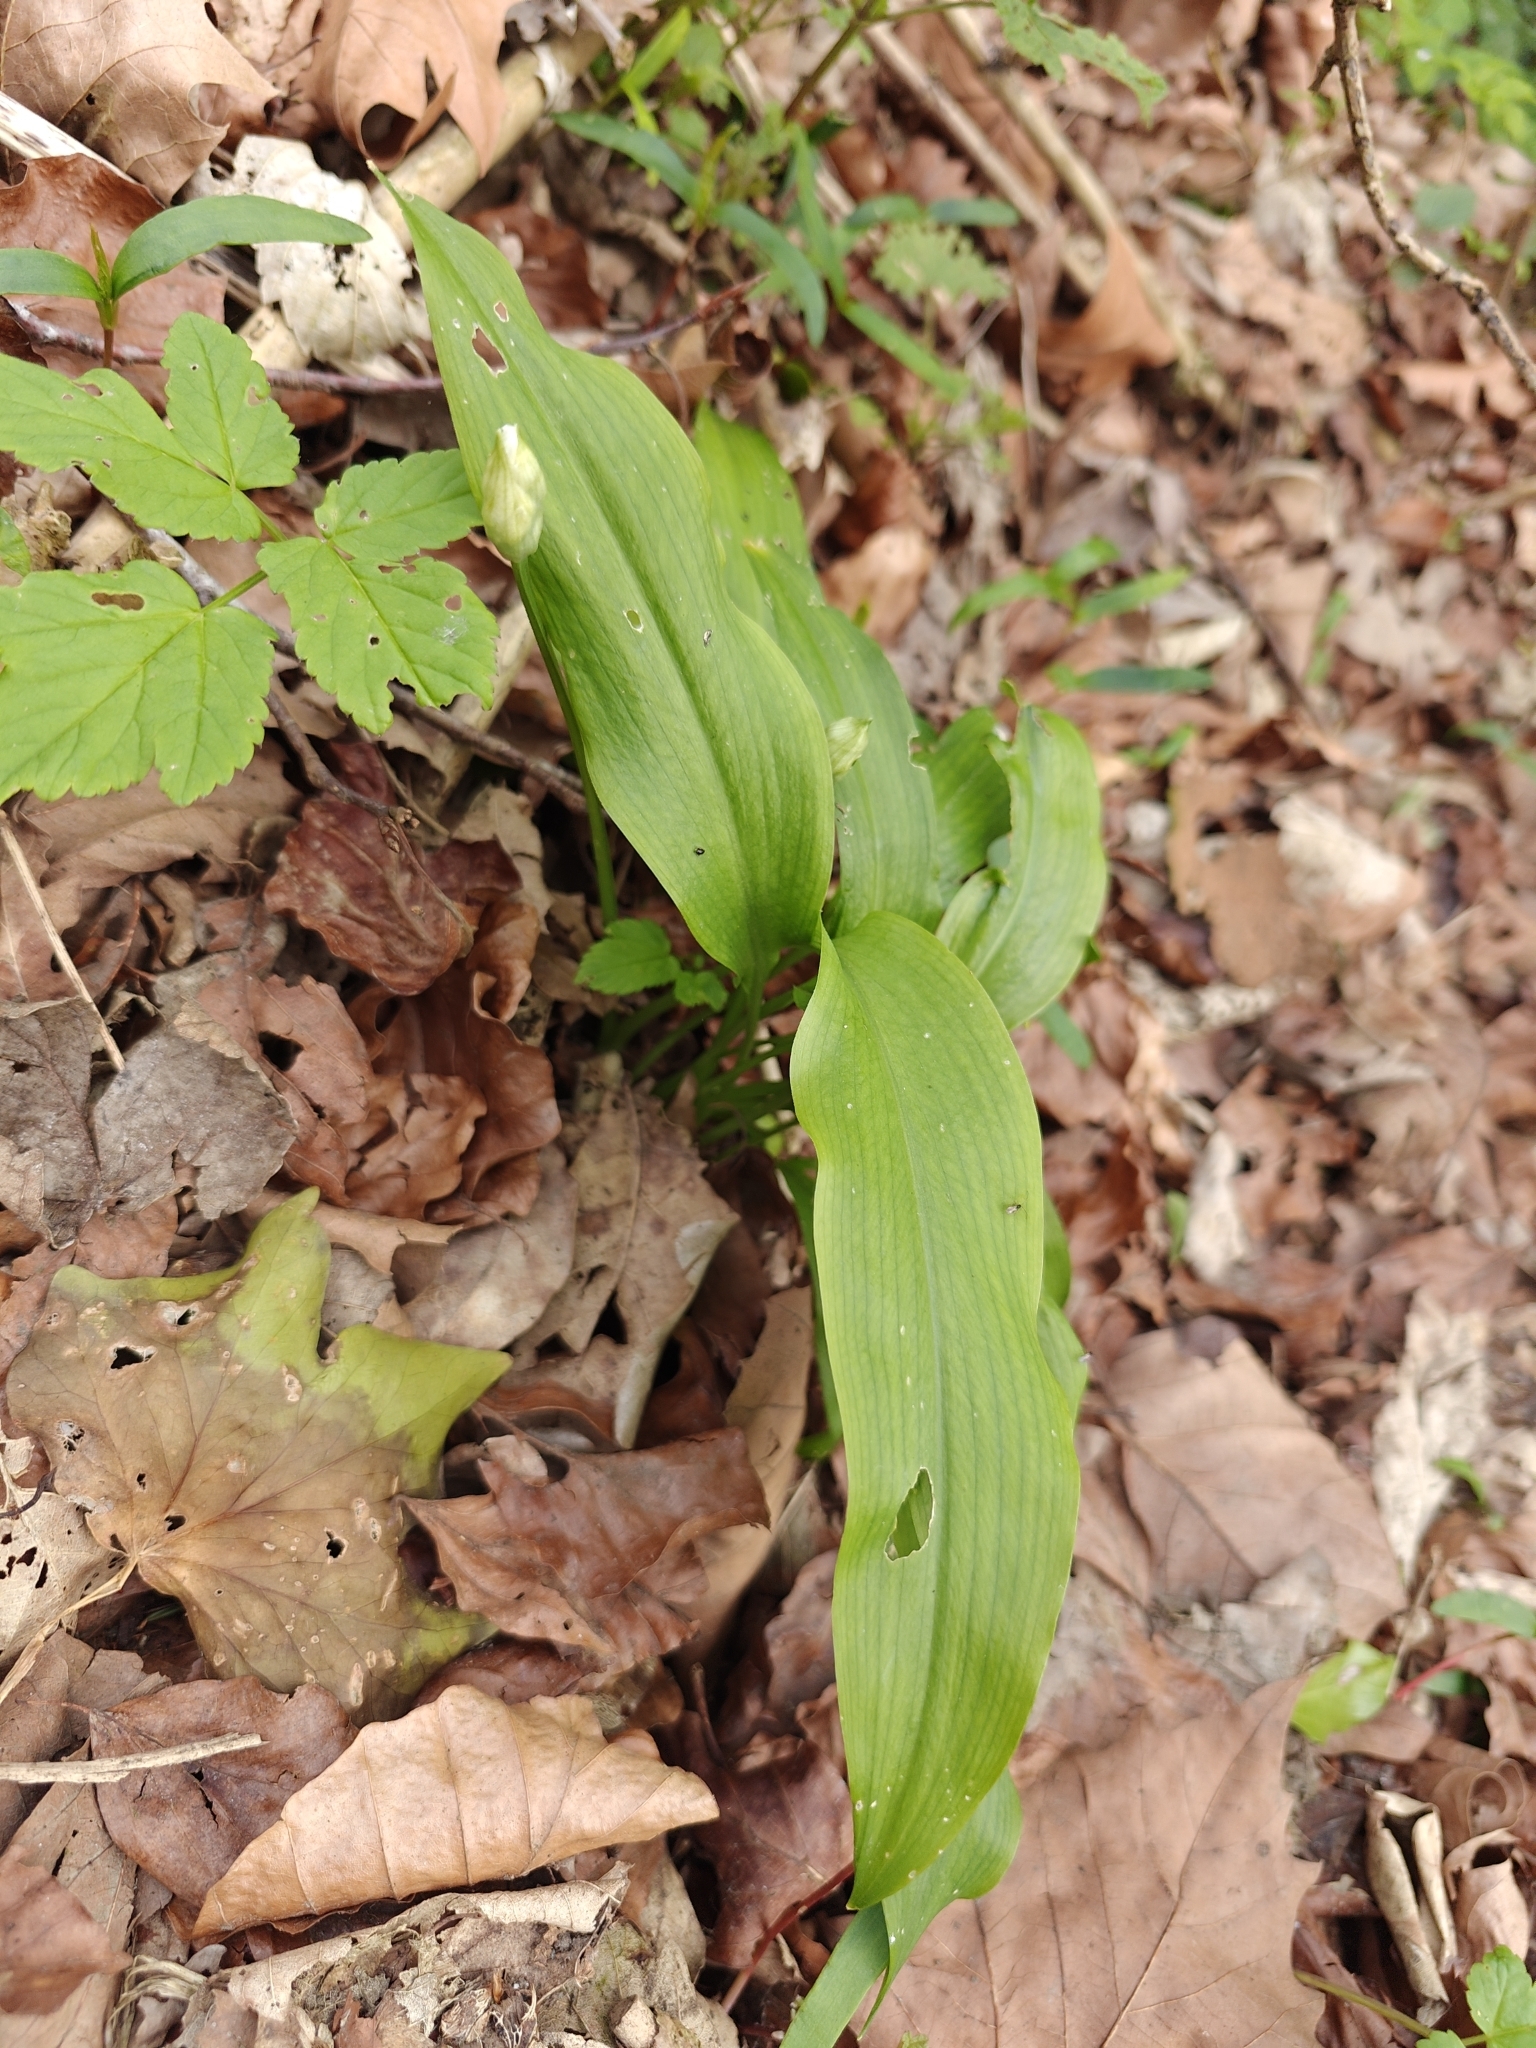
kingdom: Plantae
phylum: Tracheophyta
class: Liliopsida
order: Asparagales
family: Amaryllidaceae
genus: Allium
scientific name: Allium ursinum
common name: Ramsons
